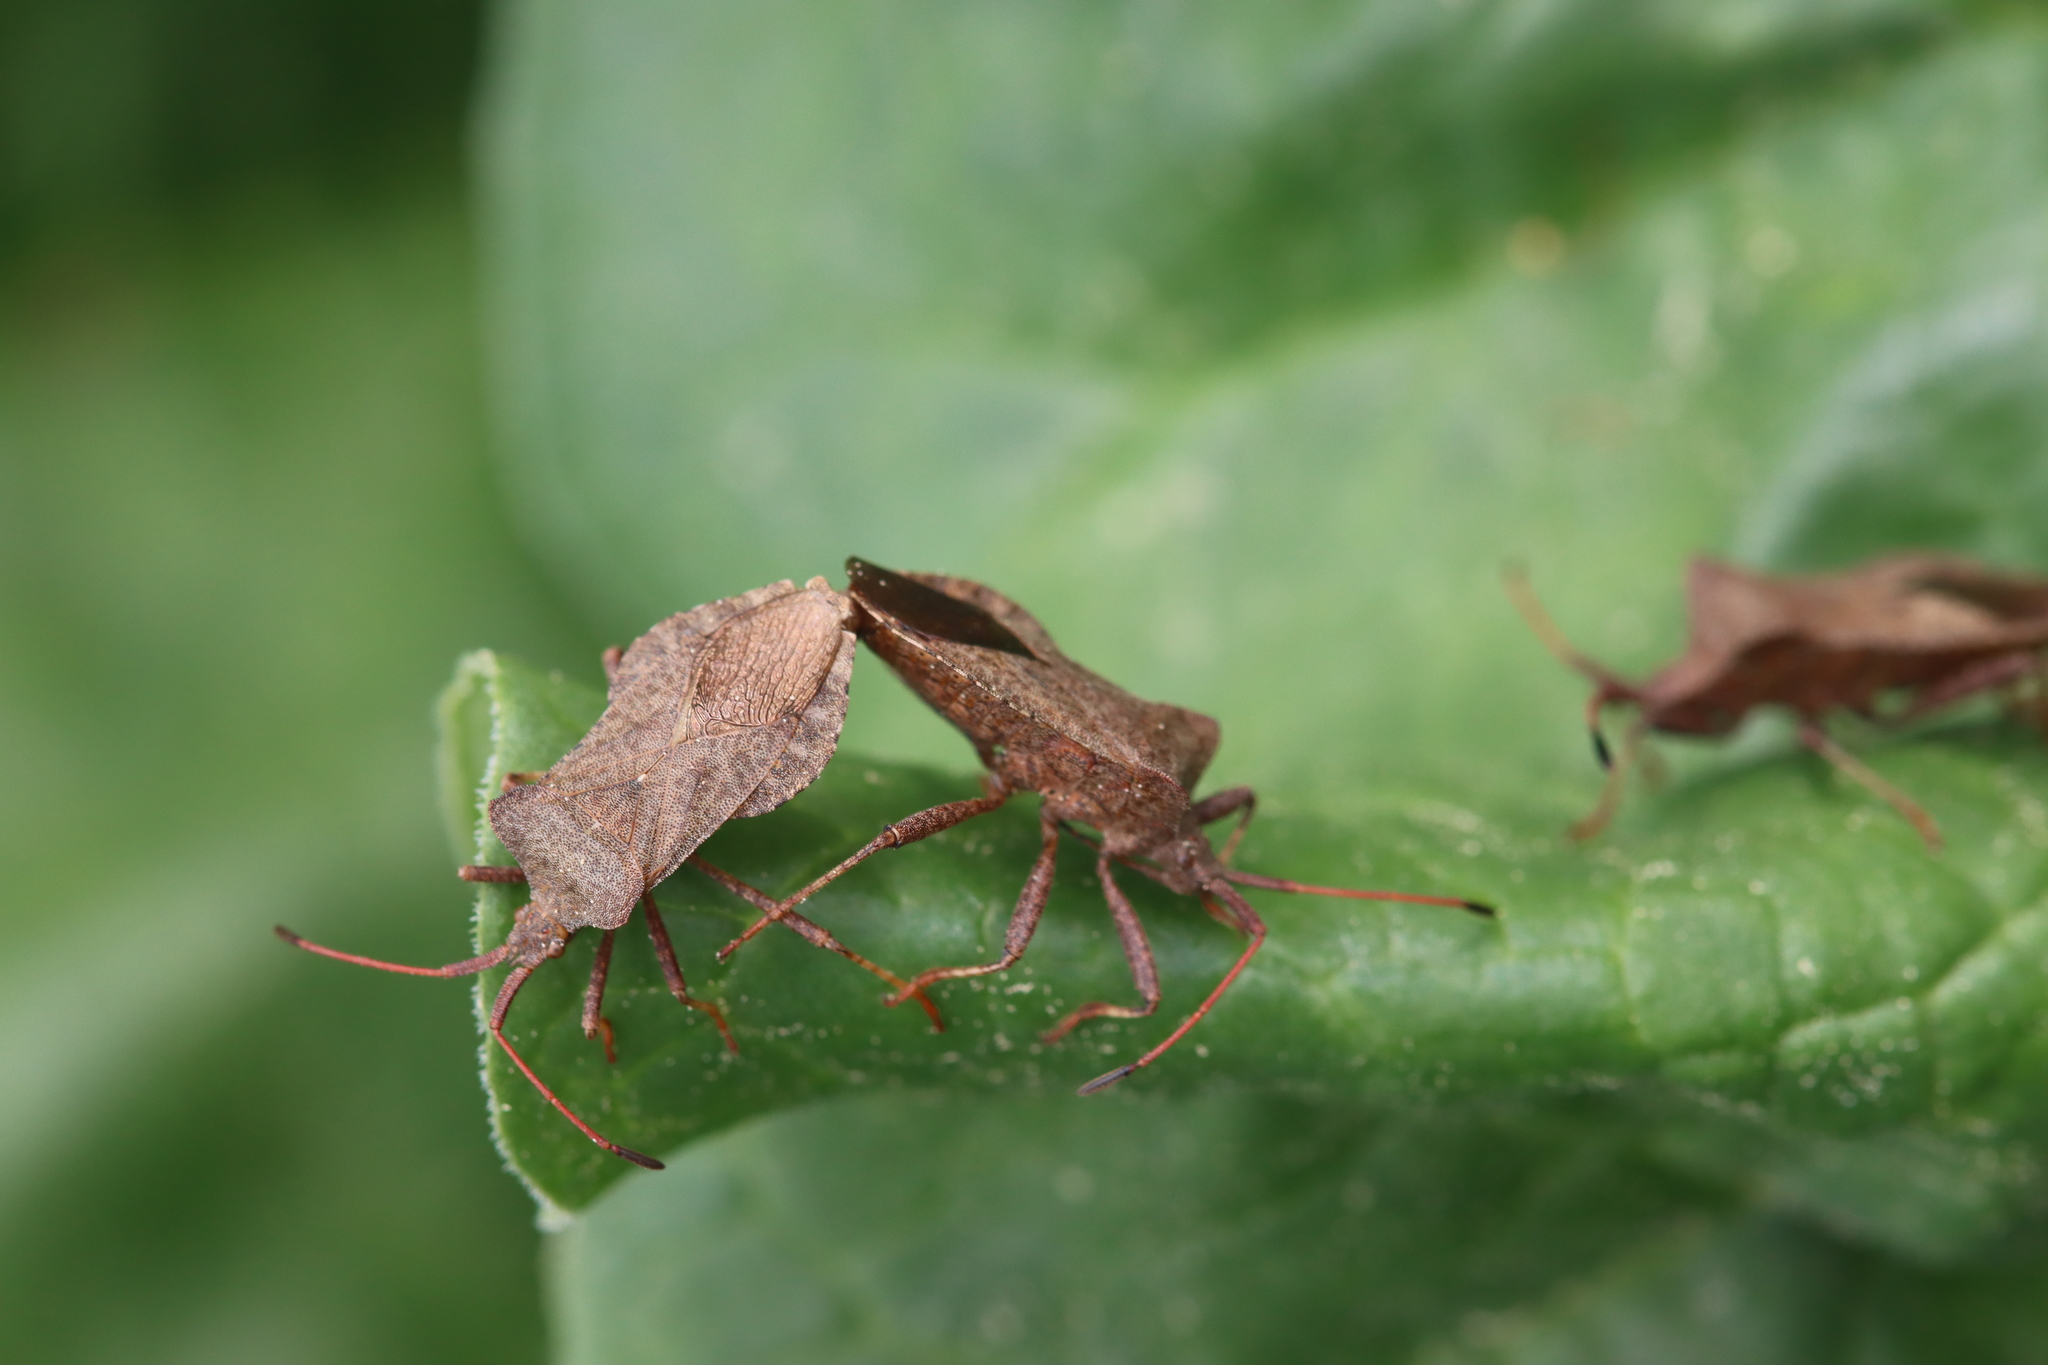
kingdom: Animalia
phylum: Arthropoda
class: Insecta
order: Hemiptera
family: Coreidae
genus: Coreus
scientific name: Coreus marginatus
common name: Dock bug
